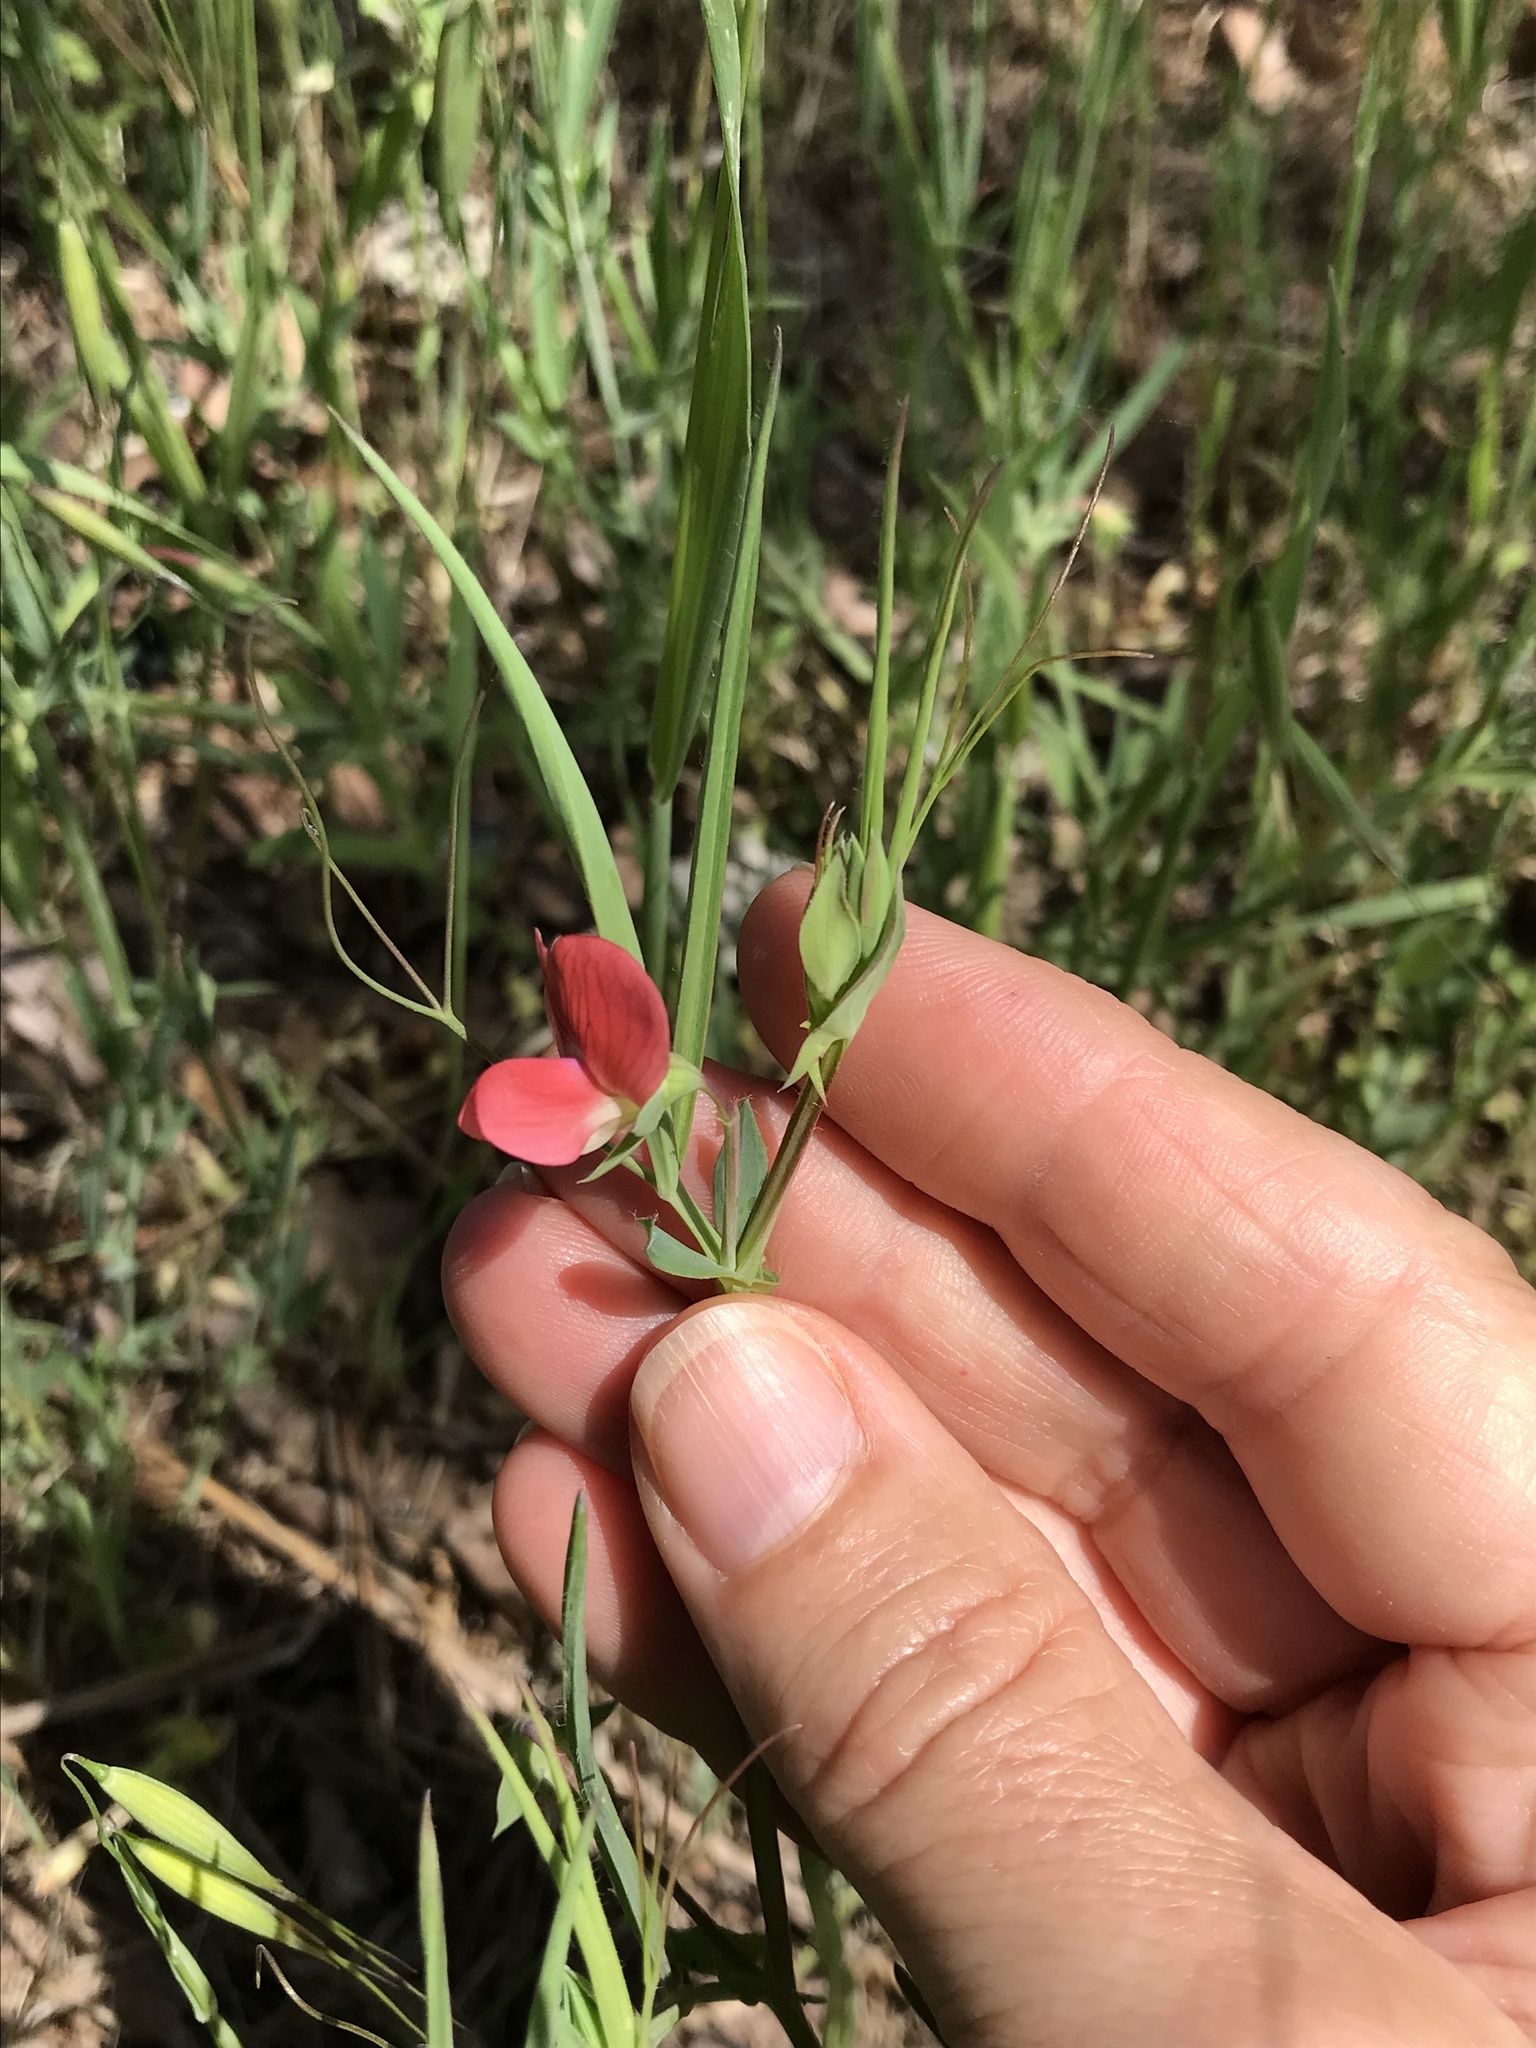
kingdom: Plantae
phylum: Tracheophyta
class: Magnoliopsida
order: Fabales
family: Fabaceae
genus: Lathyrus
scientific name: Lathyrus cicera
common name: Red vetchling
